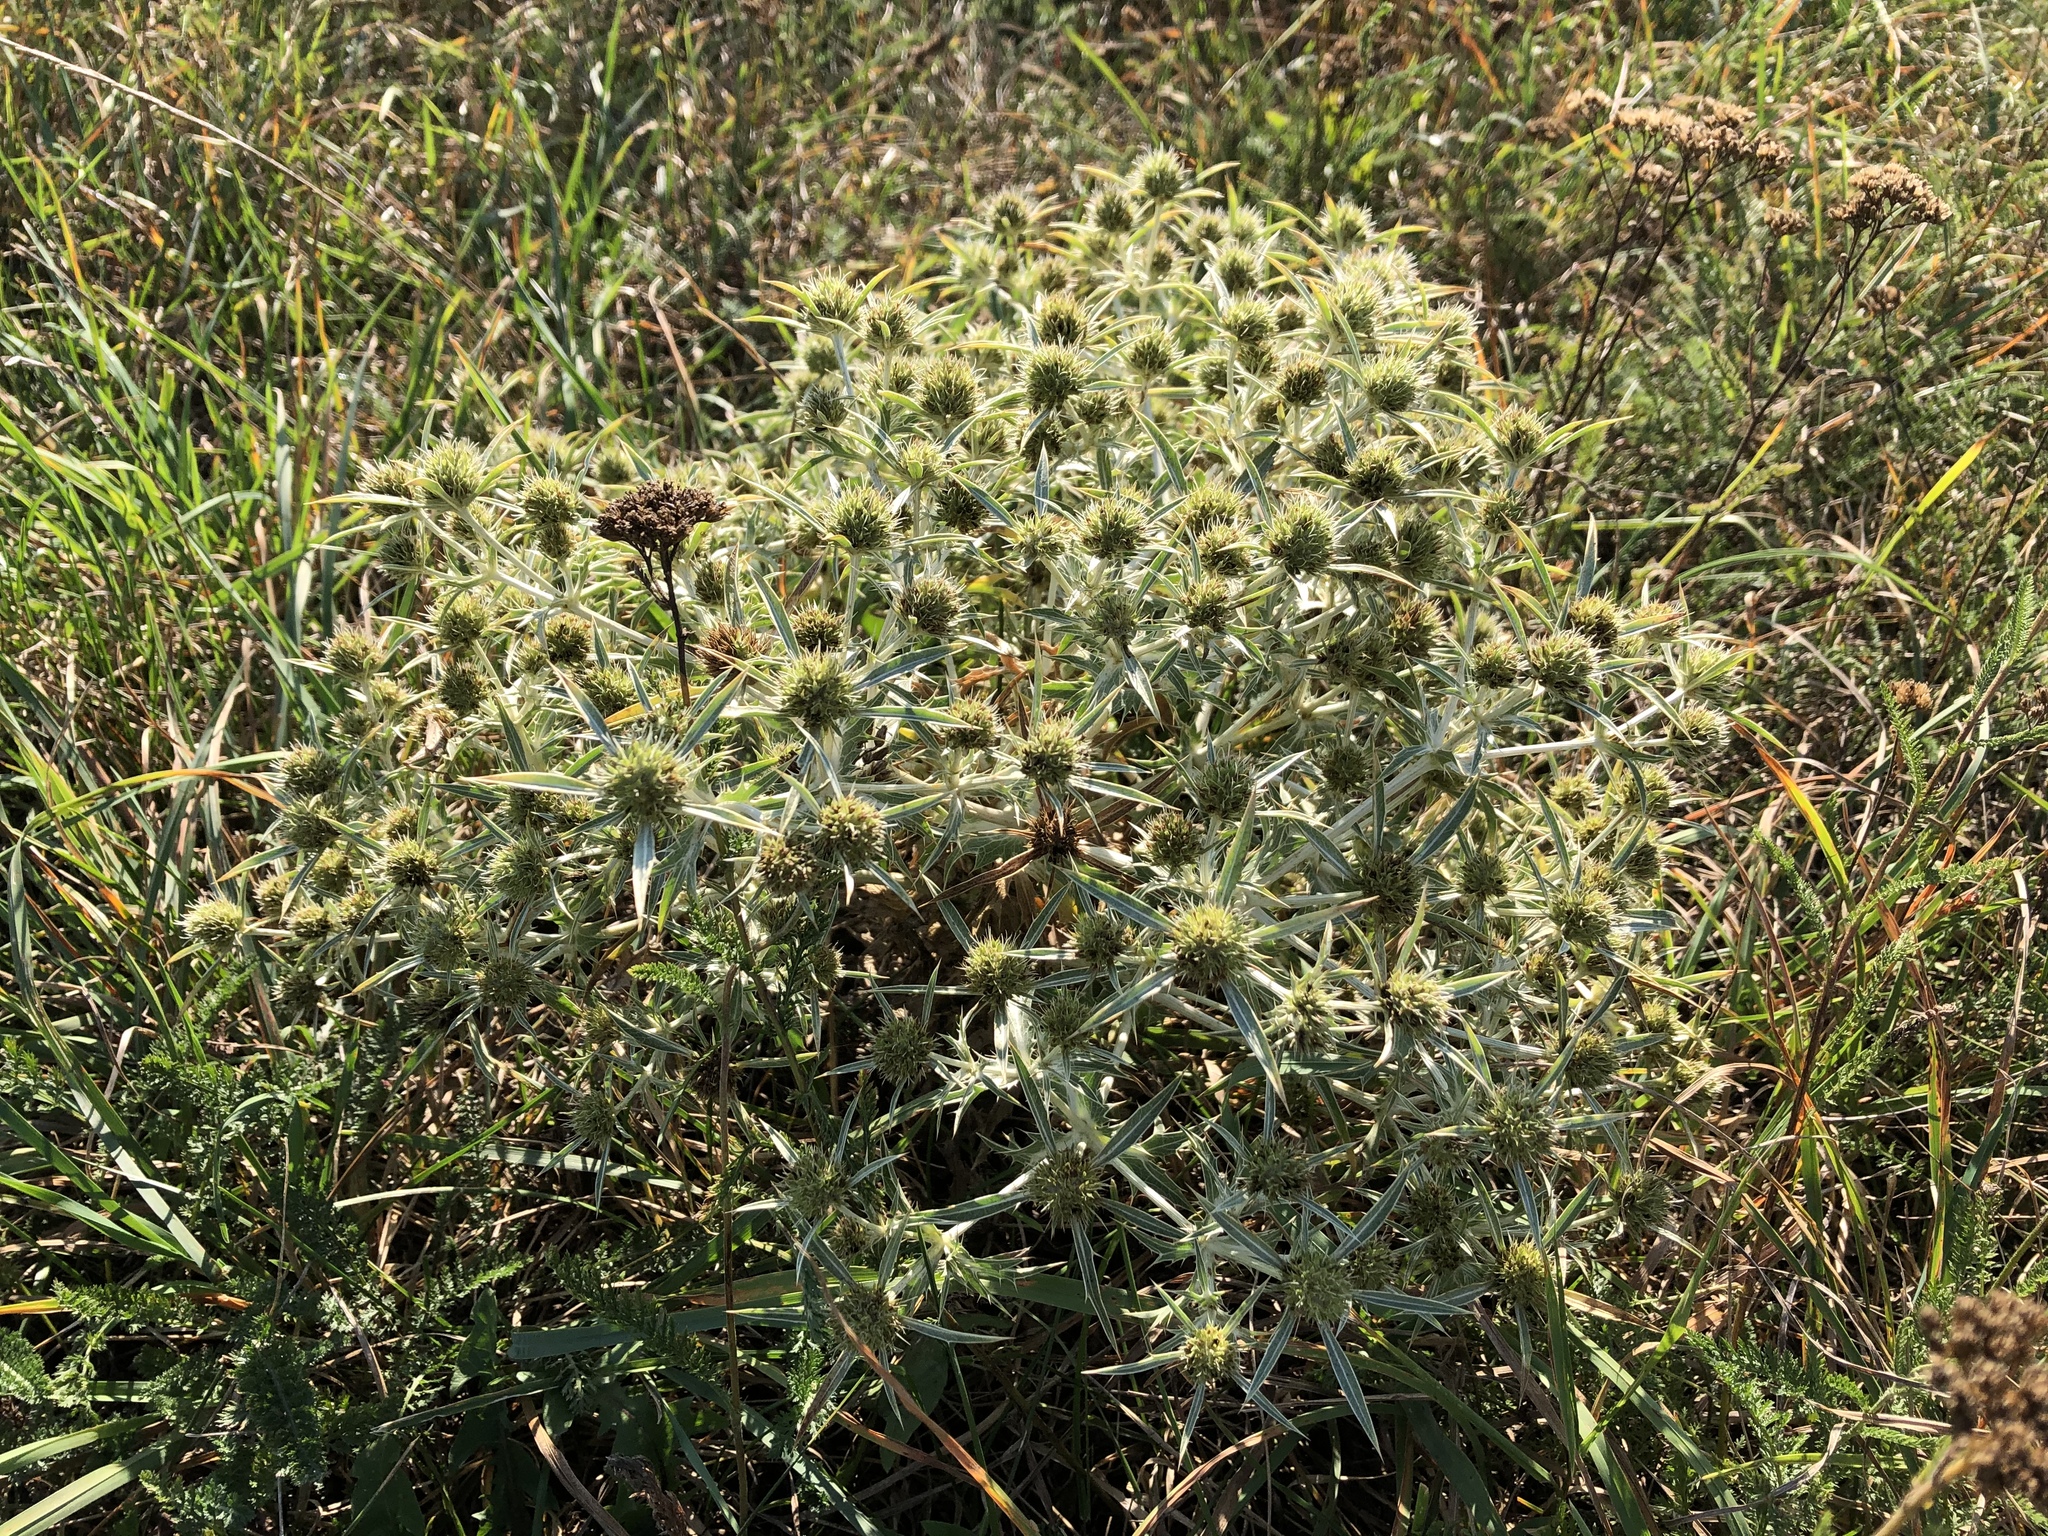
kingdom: Plantae
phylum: Tracheophyta
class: Magnoliopsida
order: Apiales
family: Apiaceae
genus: Eryngium
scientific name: Eryngium campestre
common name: Field eryngo
